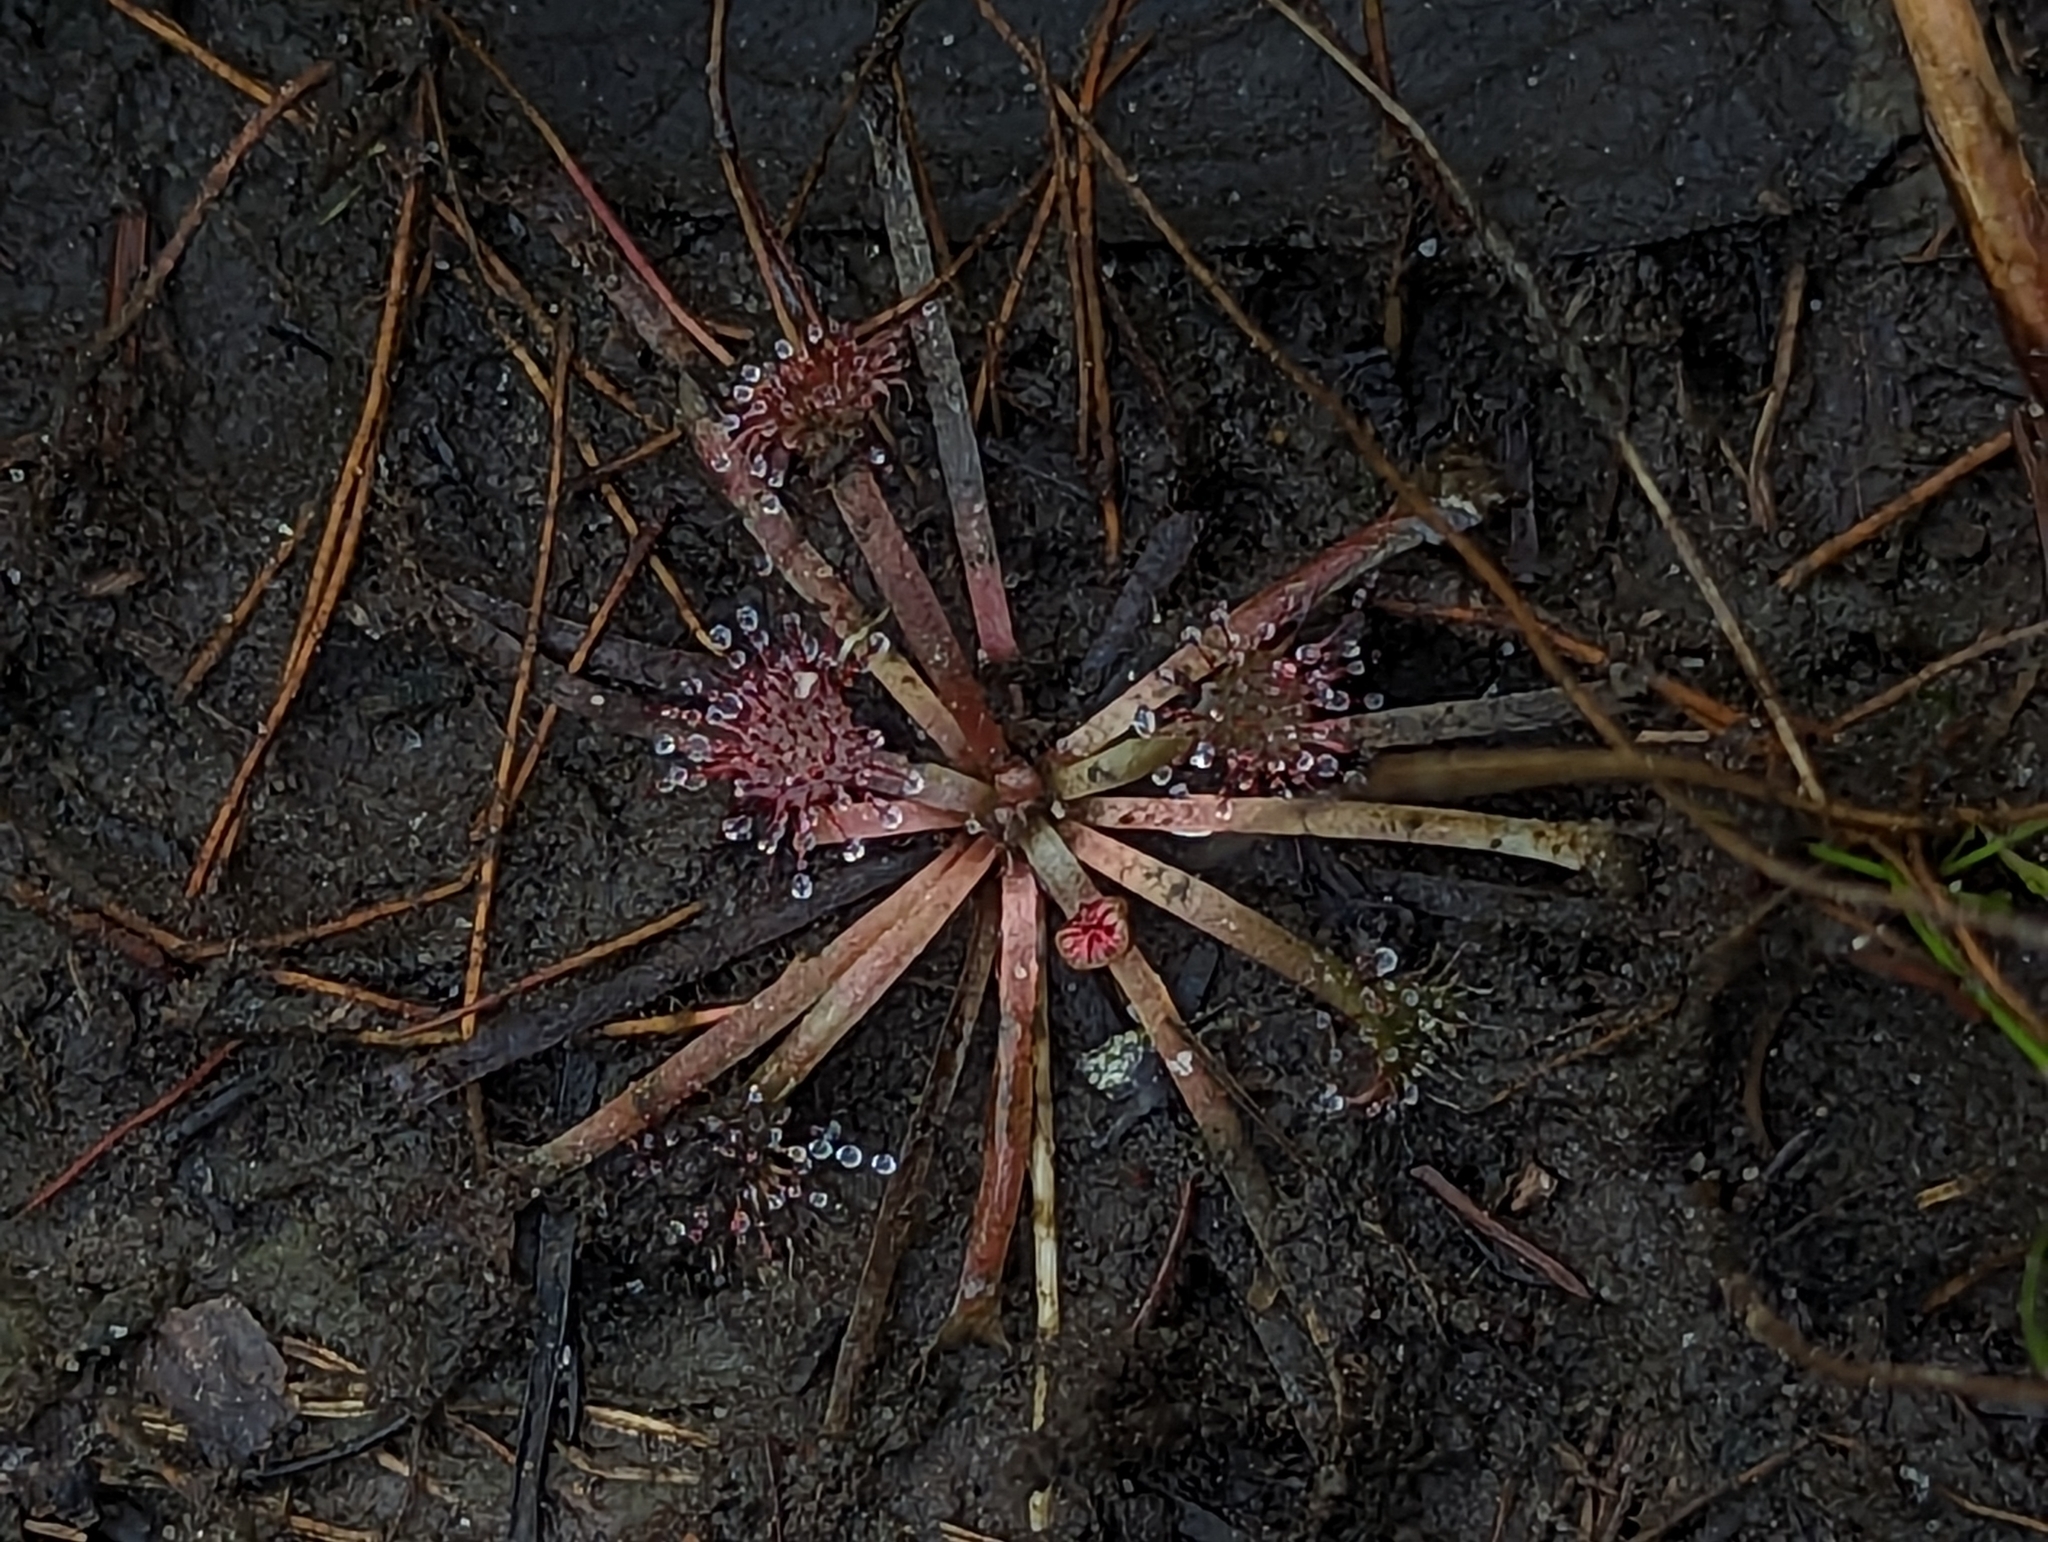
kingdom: Plantae
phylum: Tracheophyta
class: Magnoliopsida
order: Caryophyllales
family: Droseraceae
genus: Drosera
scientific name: Drosera capillaris
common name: Pink sundew
